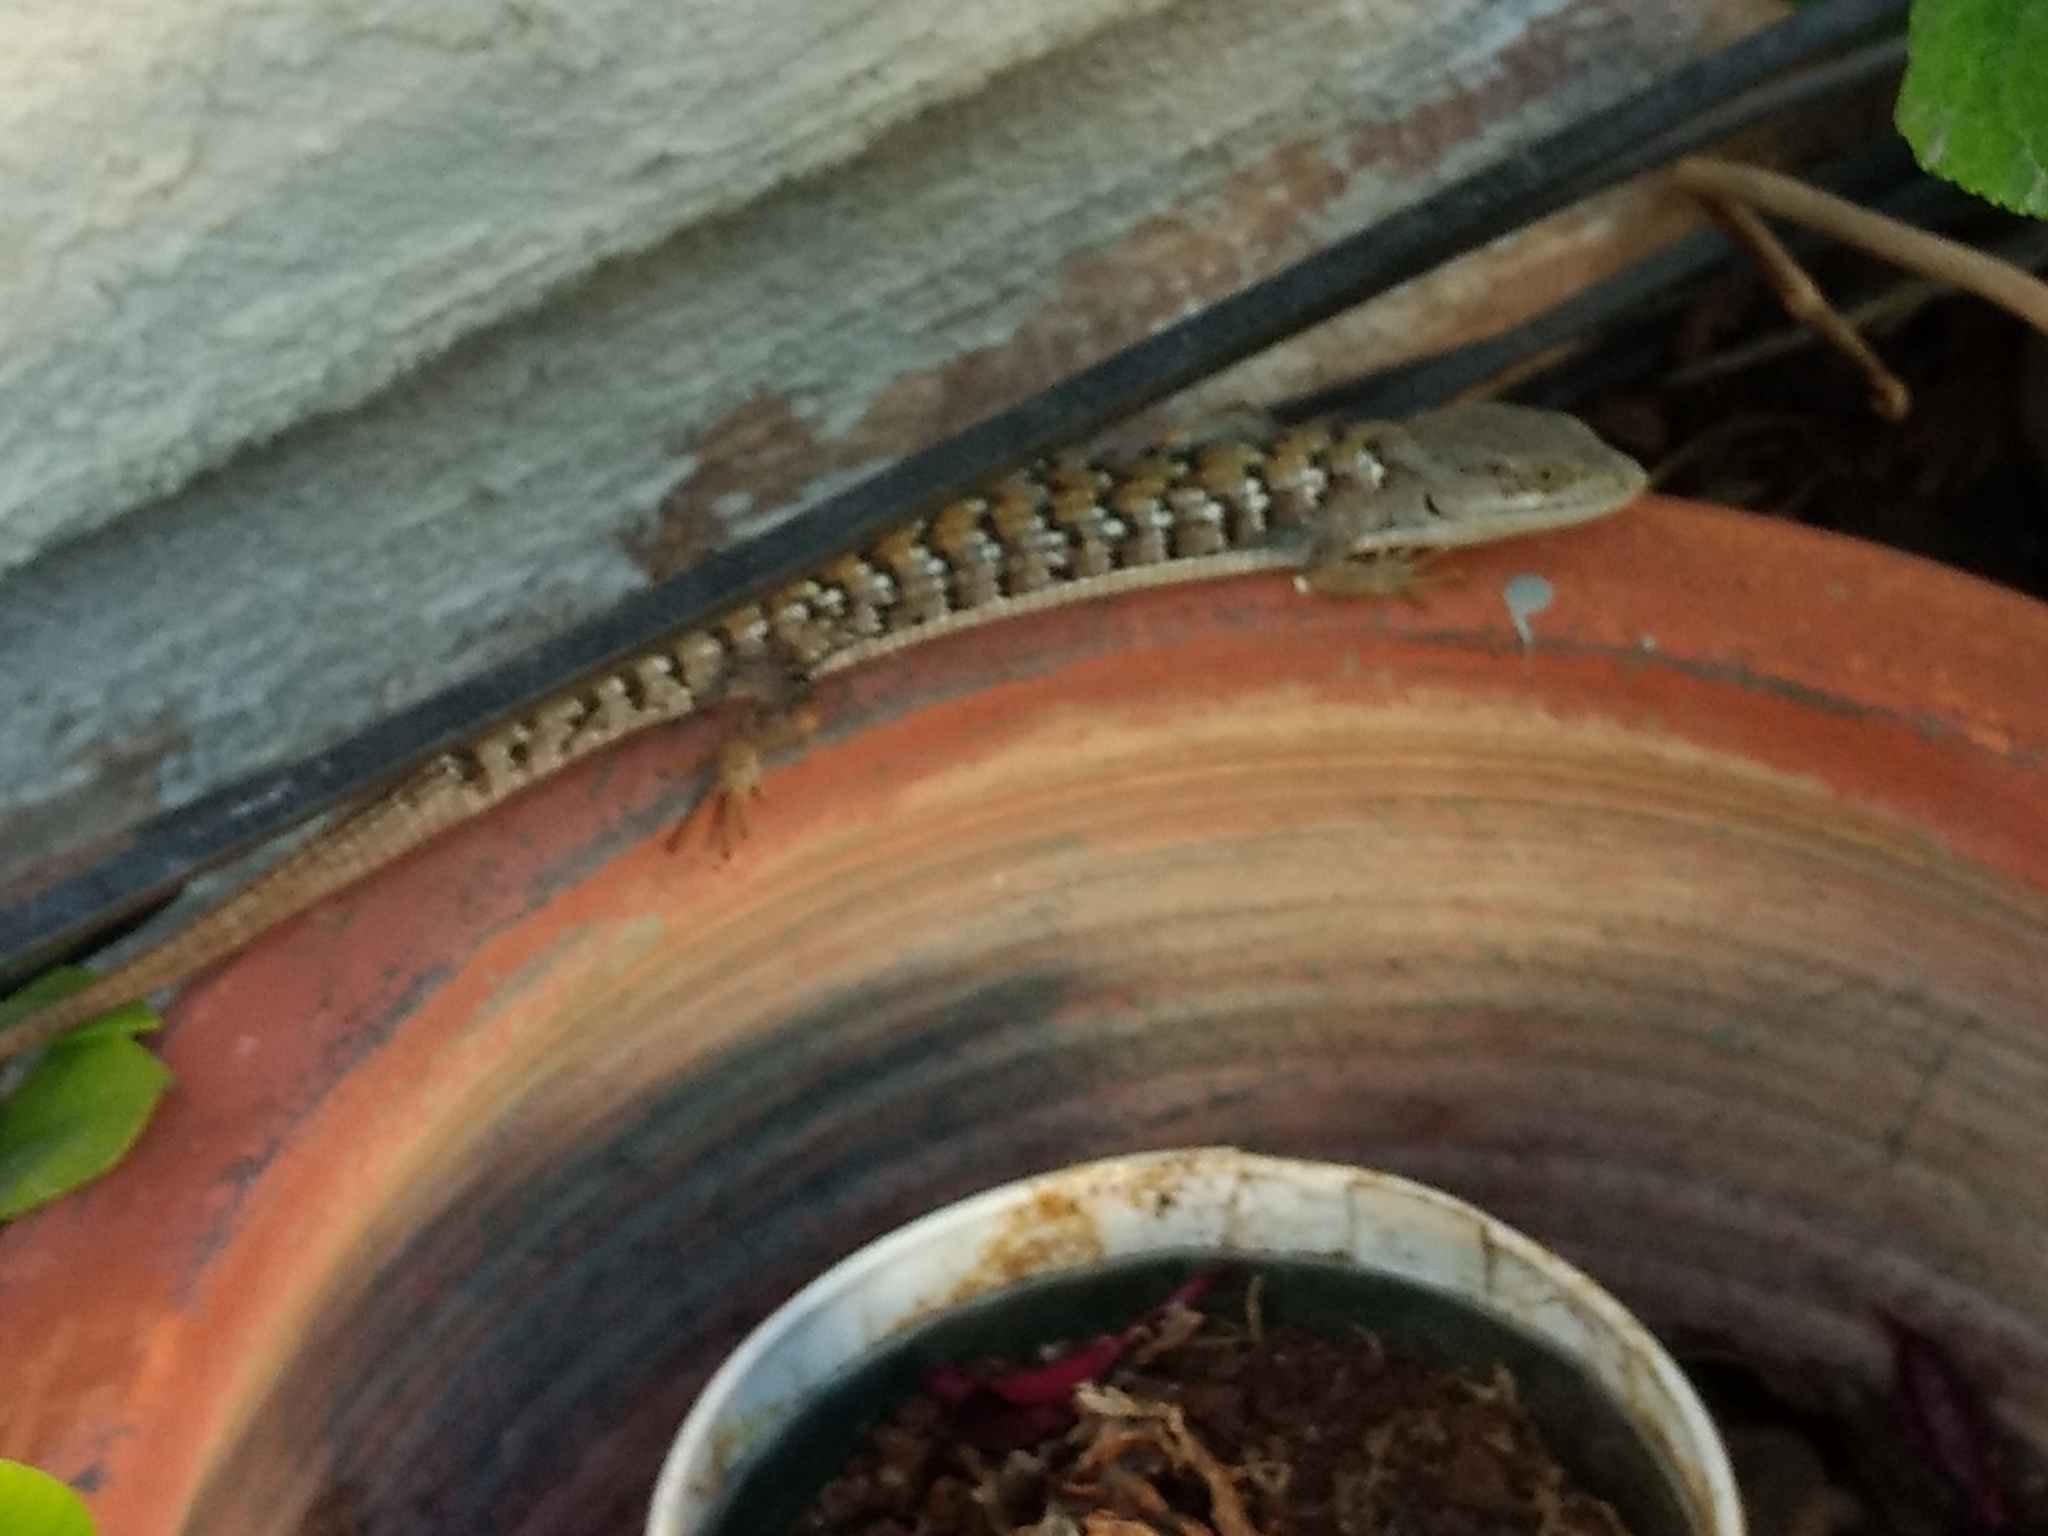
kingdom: Animalia
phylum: Chordata
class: Squamata
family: Anguidae
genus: Elgaria
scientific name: Elgaria multicarinata
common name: Southern alligator lizard
